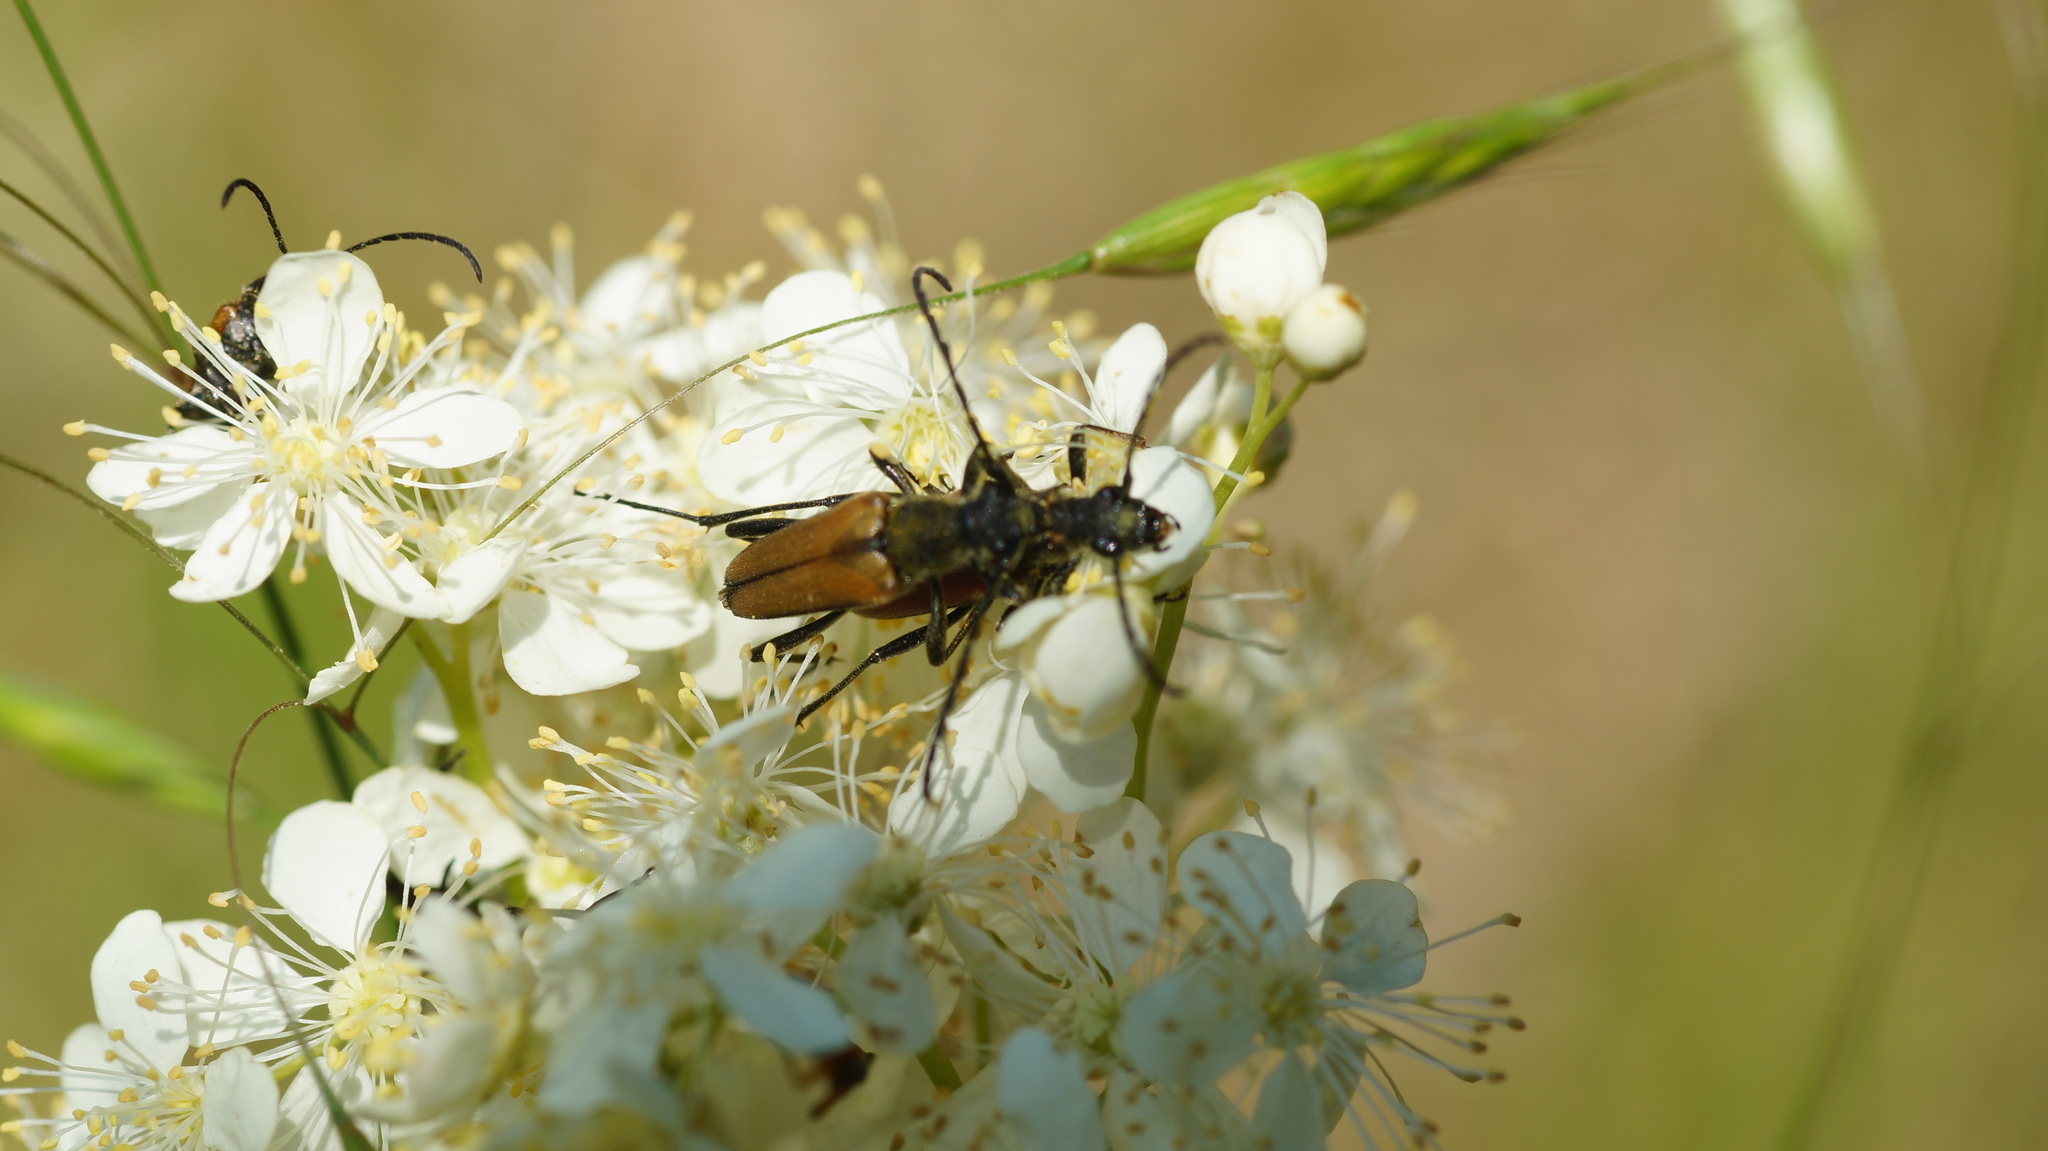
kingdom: Animalia
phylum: Arthropoda
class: Insecta
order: Coleoptera
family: Cerambycidae
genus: Anastrangalia
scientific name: Anastrangalia reyi
